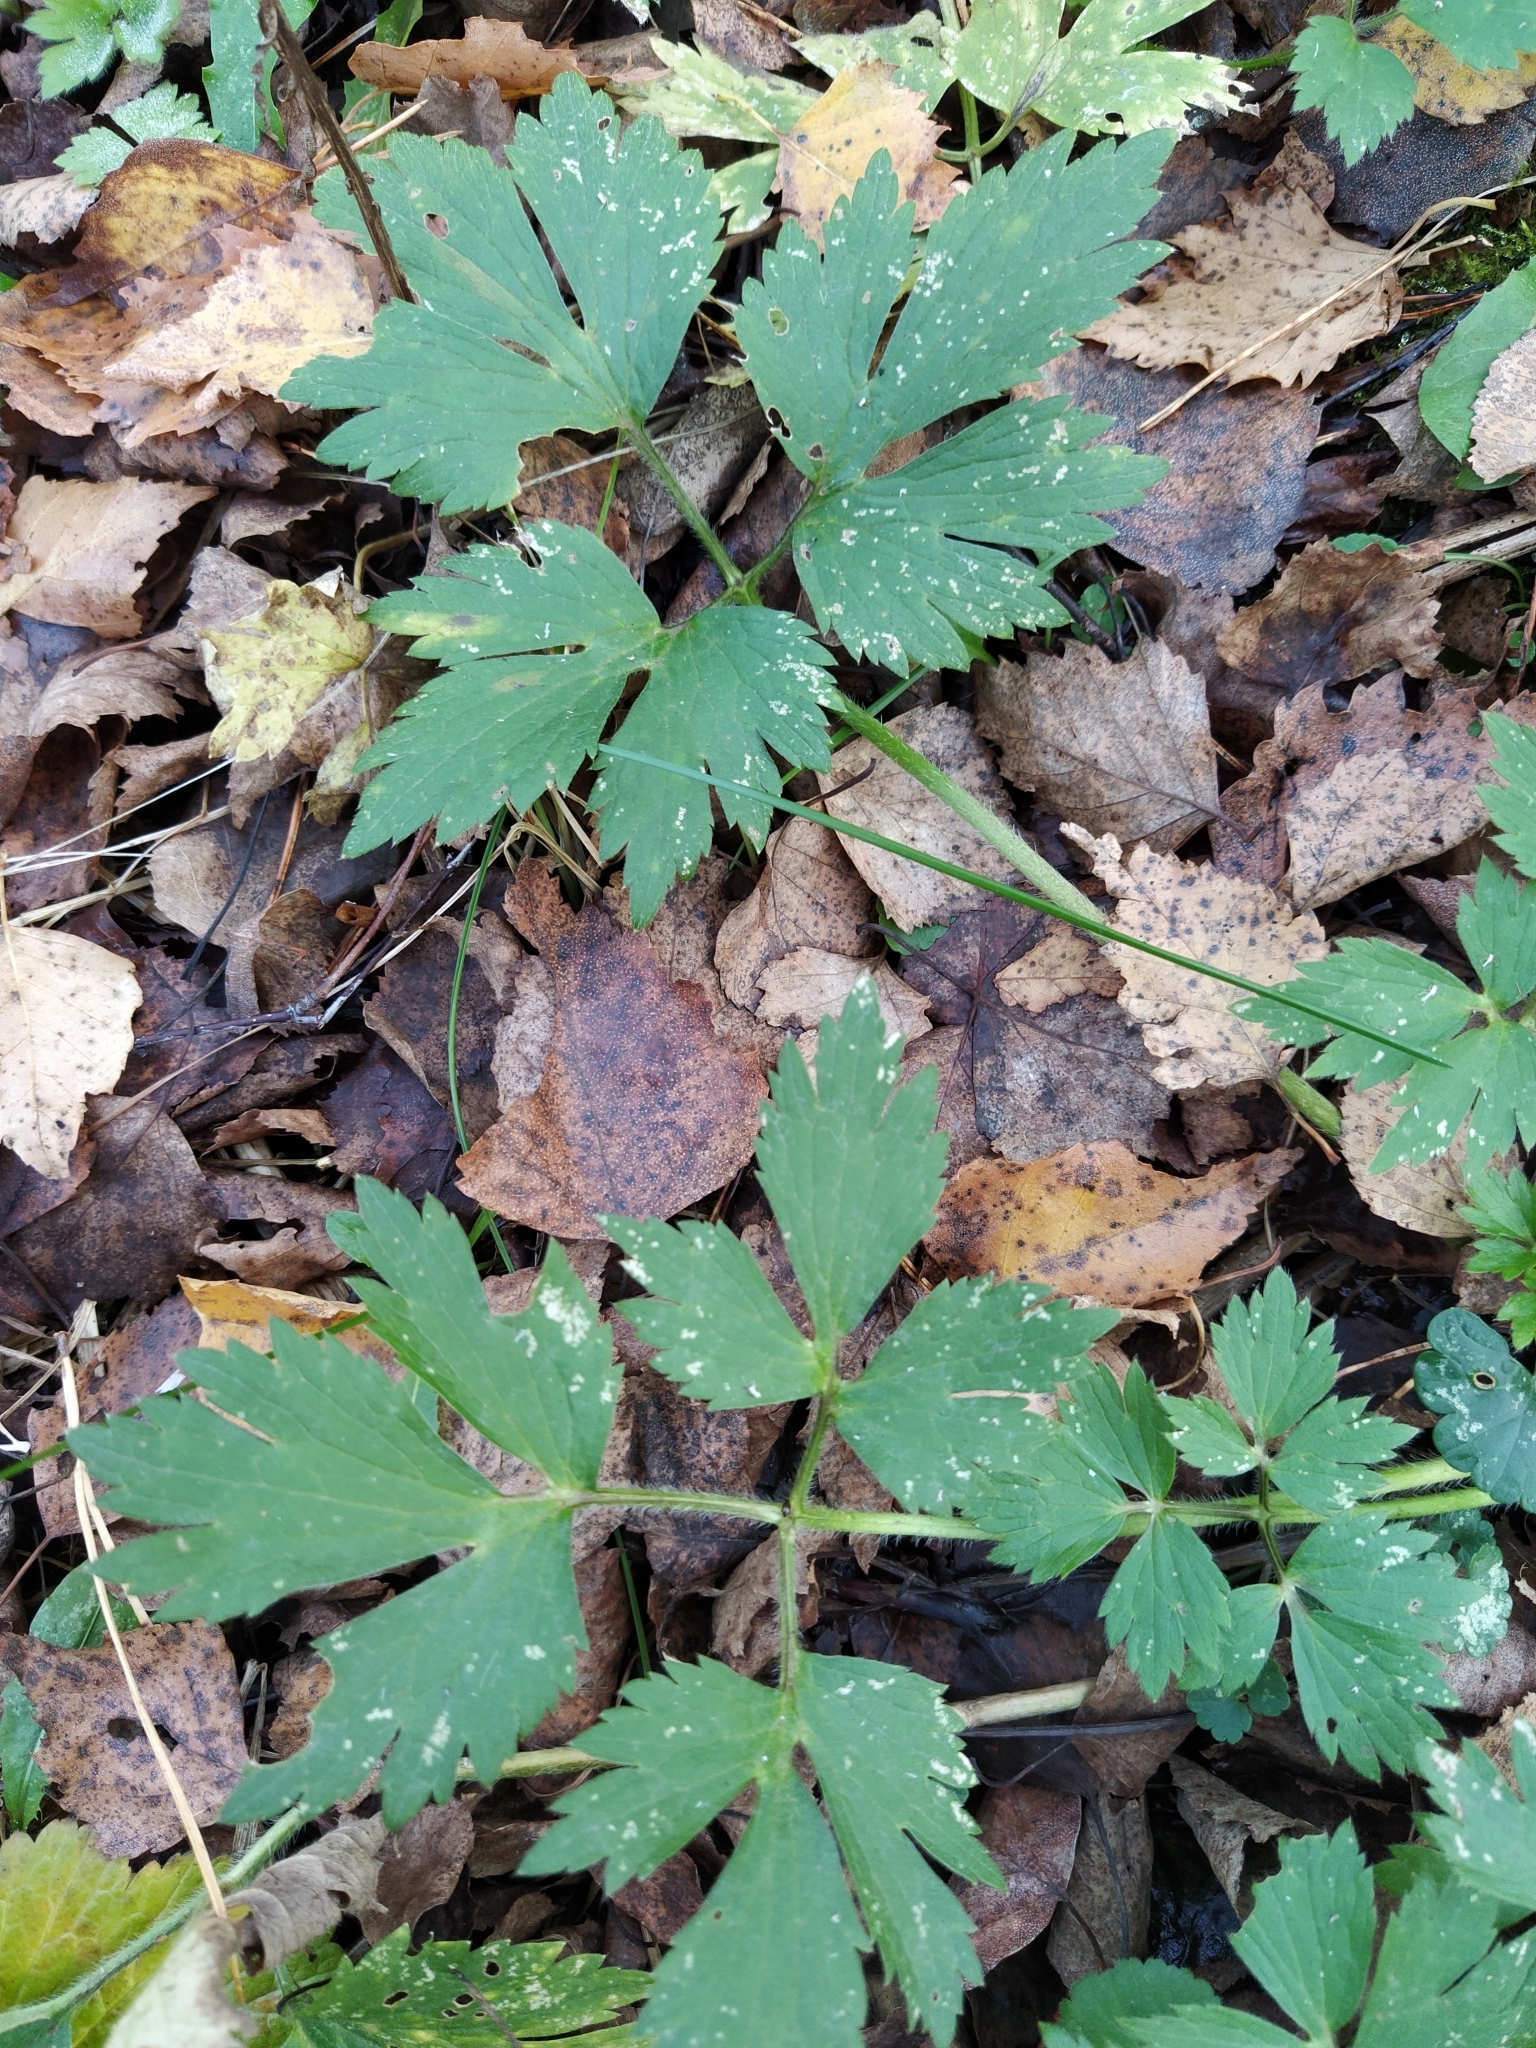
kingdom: Plantae
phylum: Tracheophyta
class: Magnoliopsida
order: Ranunculales
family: Ranunculaceae
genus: Ranunculus
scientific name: Ranunculus repens
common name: Creeping buttercup
